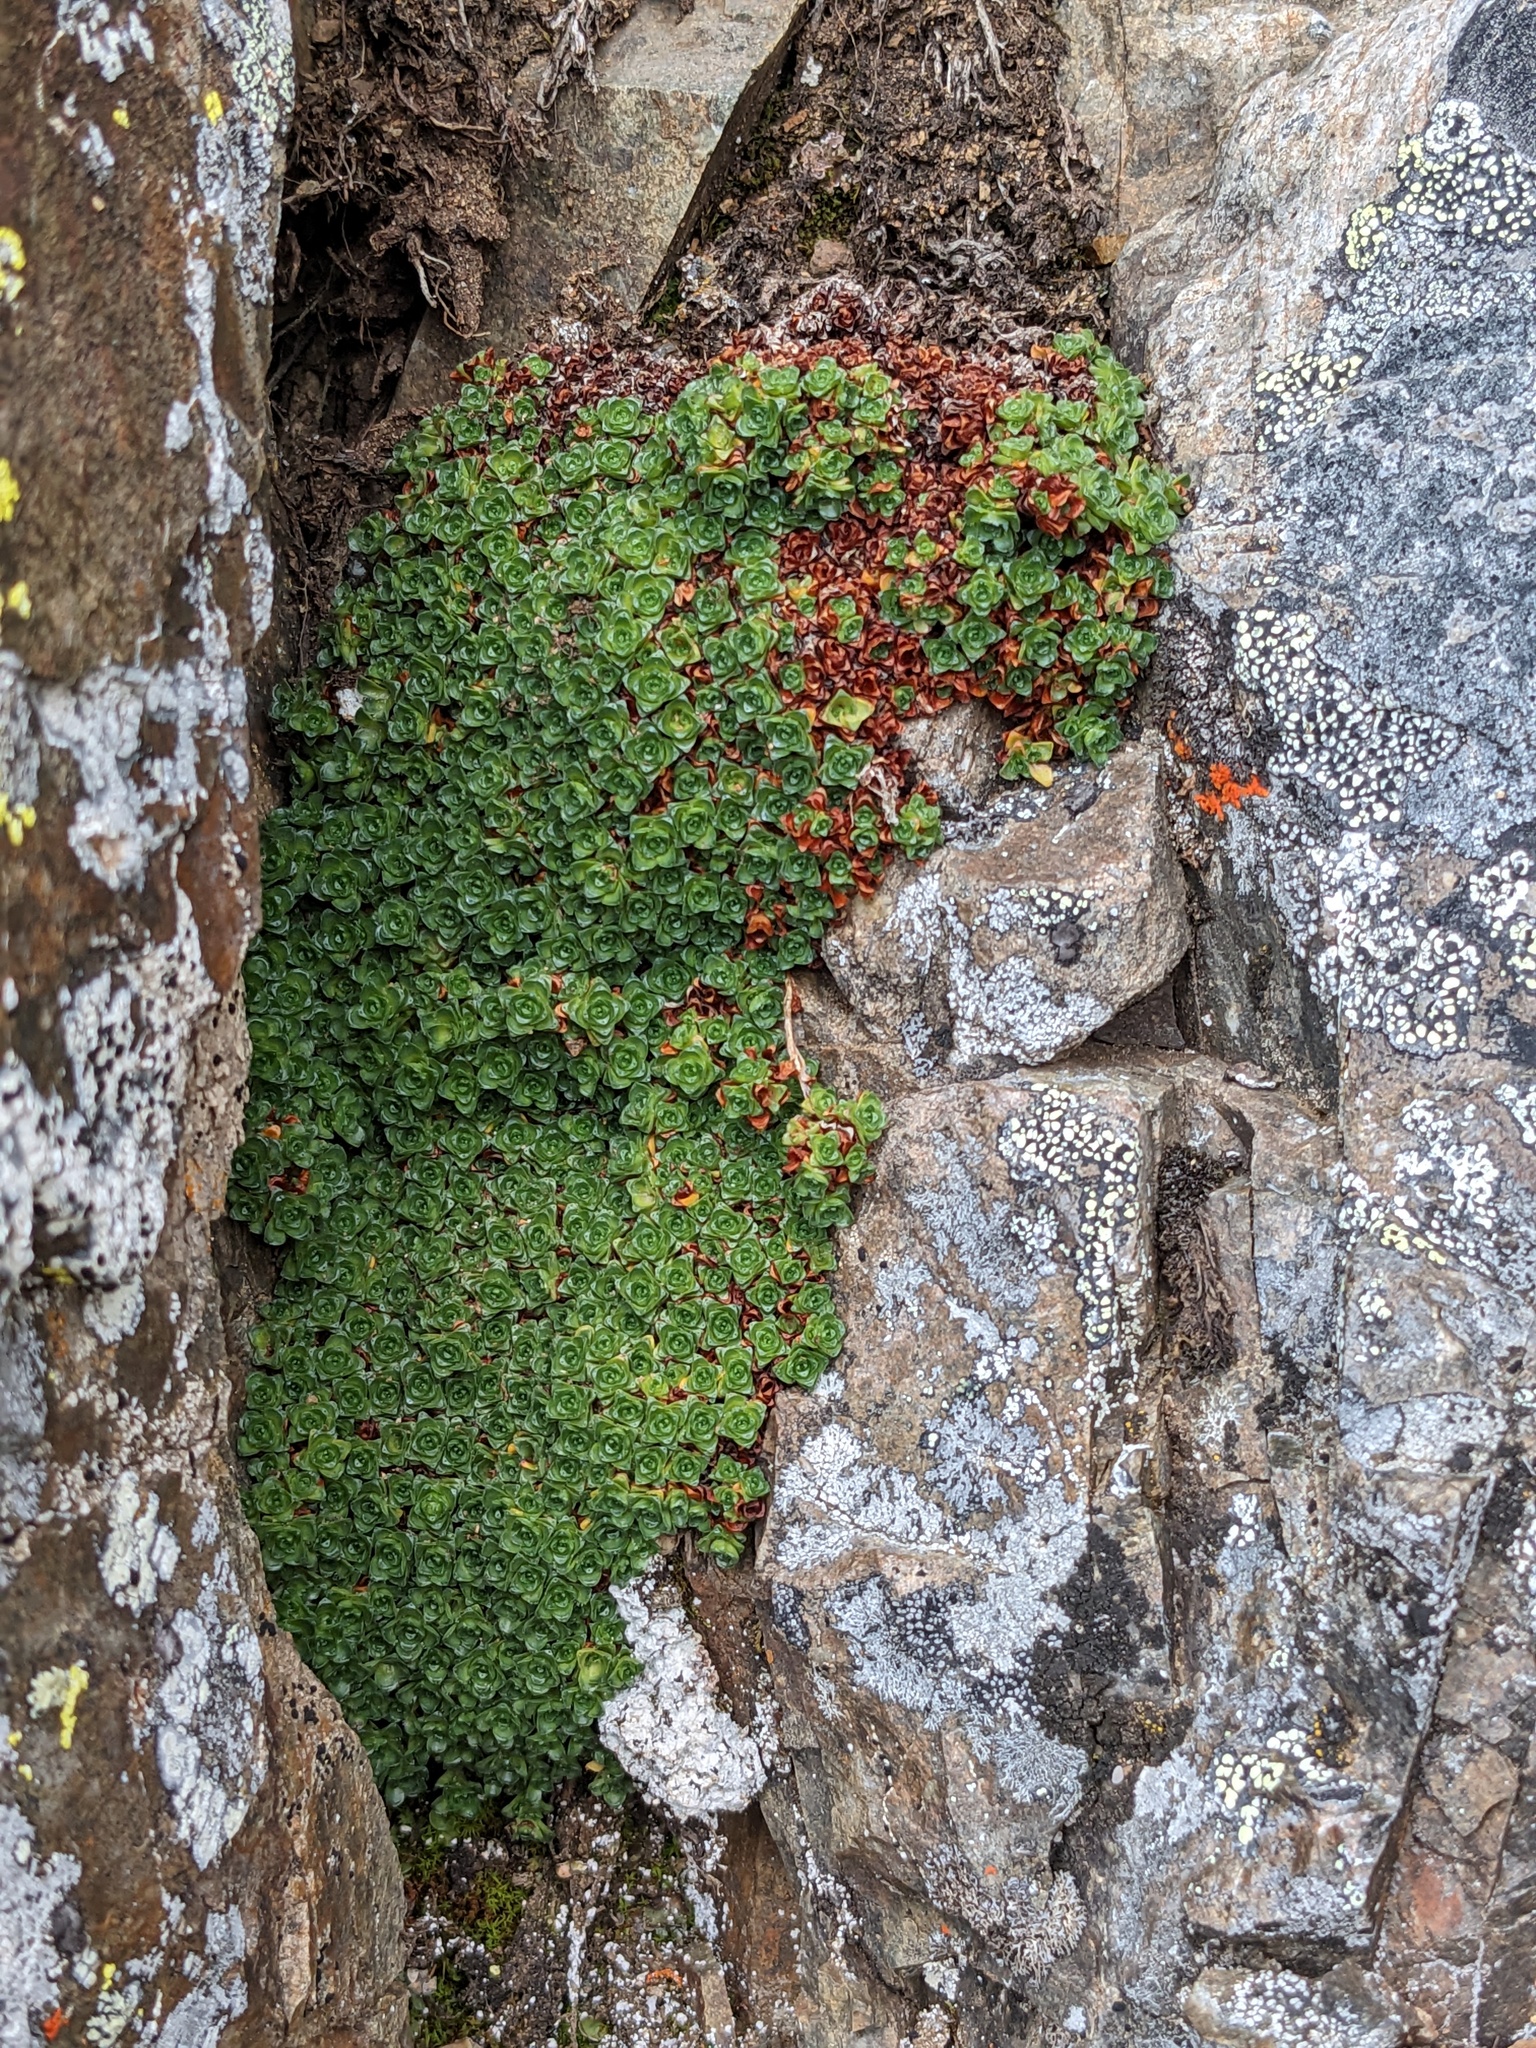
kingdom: Plantae
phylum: Tracheophyta
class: Magnoliopsida
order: Saxifragales
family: Saxifragaceae
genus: Saxifraga
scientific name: Saxifraga oppositifolia
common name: Purple saxifrage
